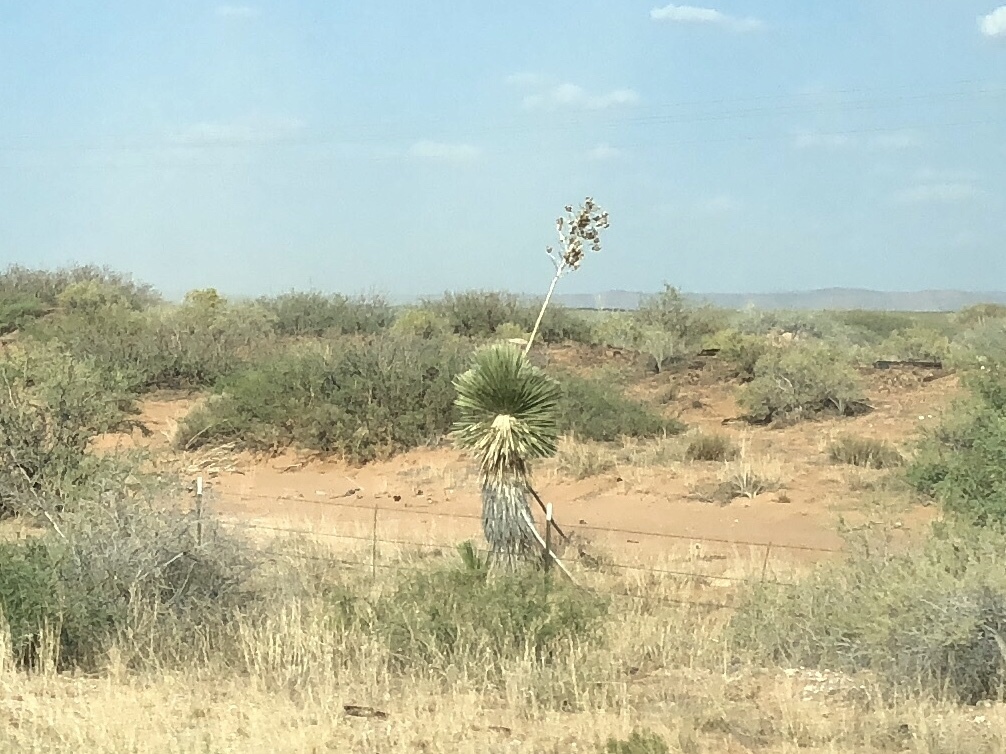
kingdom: Plantae
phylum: Tracheophyta
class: Liliopsida
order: Asparagales
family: Asparagaceae
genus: Yucca
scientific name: Yucca elata
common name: Palmella
